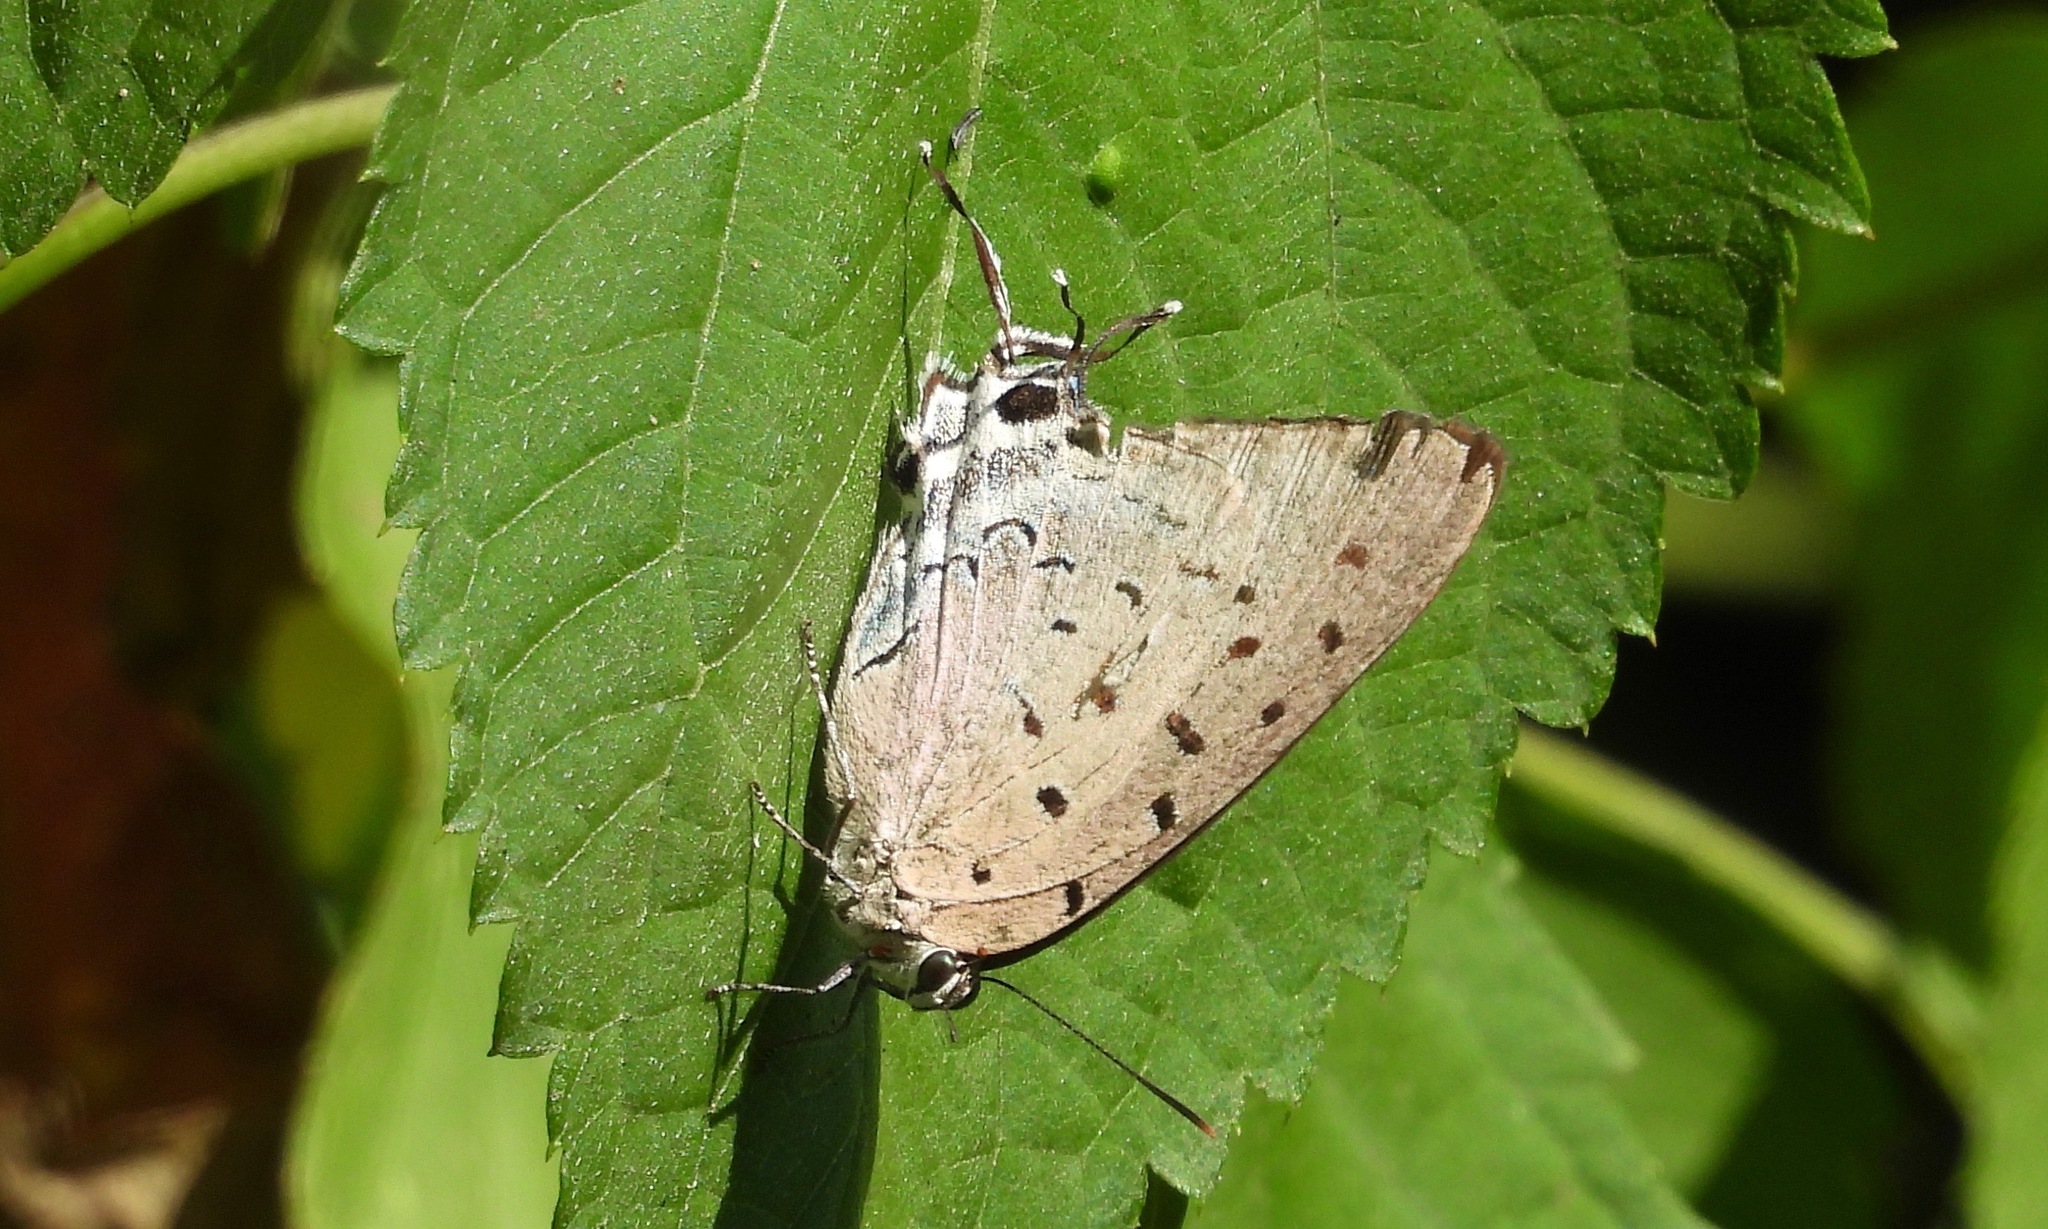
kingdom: Animalia
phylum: Arthropoda
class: Insecta
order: Lepidoptera
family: Lycaenidae
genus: Pseudolycaena
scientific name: Pseudolycaena damo
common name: Sky-blue hairstreak
